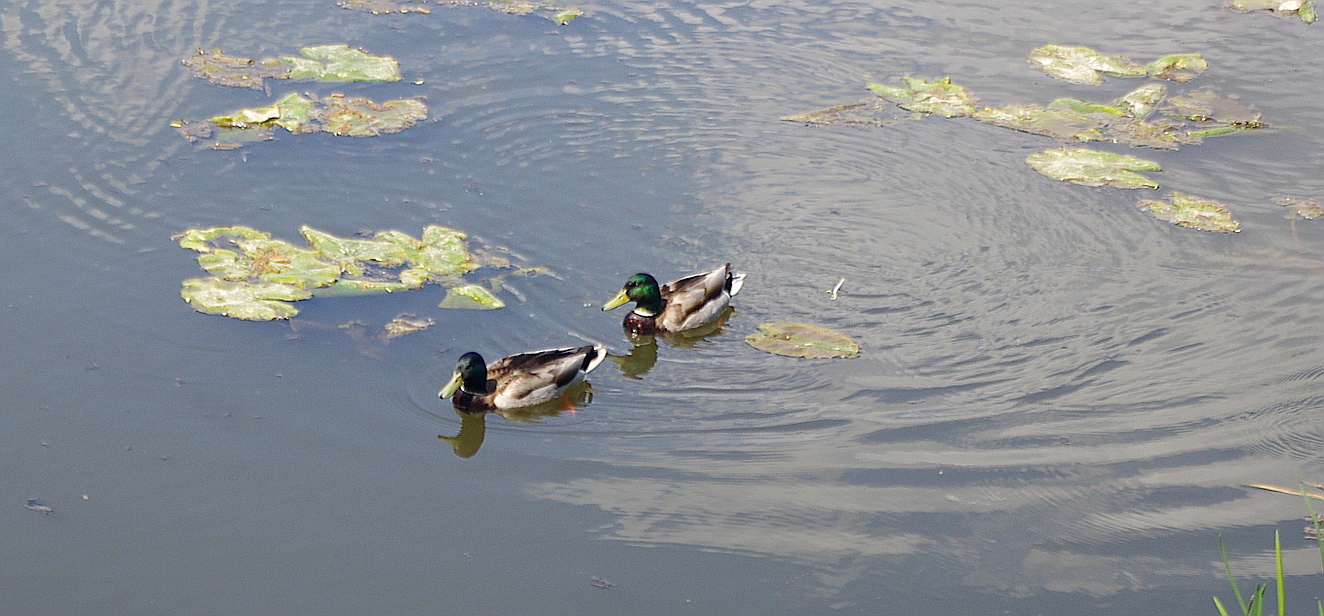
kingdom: Animalia
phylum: Chordata
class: Aves
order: Anseriformes
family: Anatidae
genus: Anas
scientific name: Anas platyrhynchos
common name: Mallard
